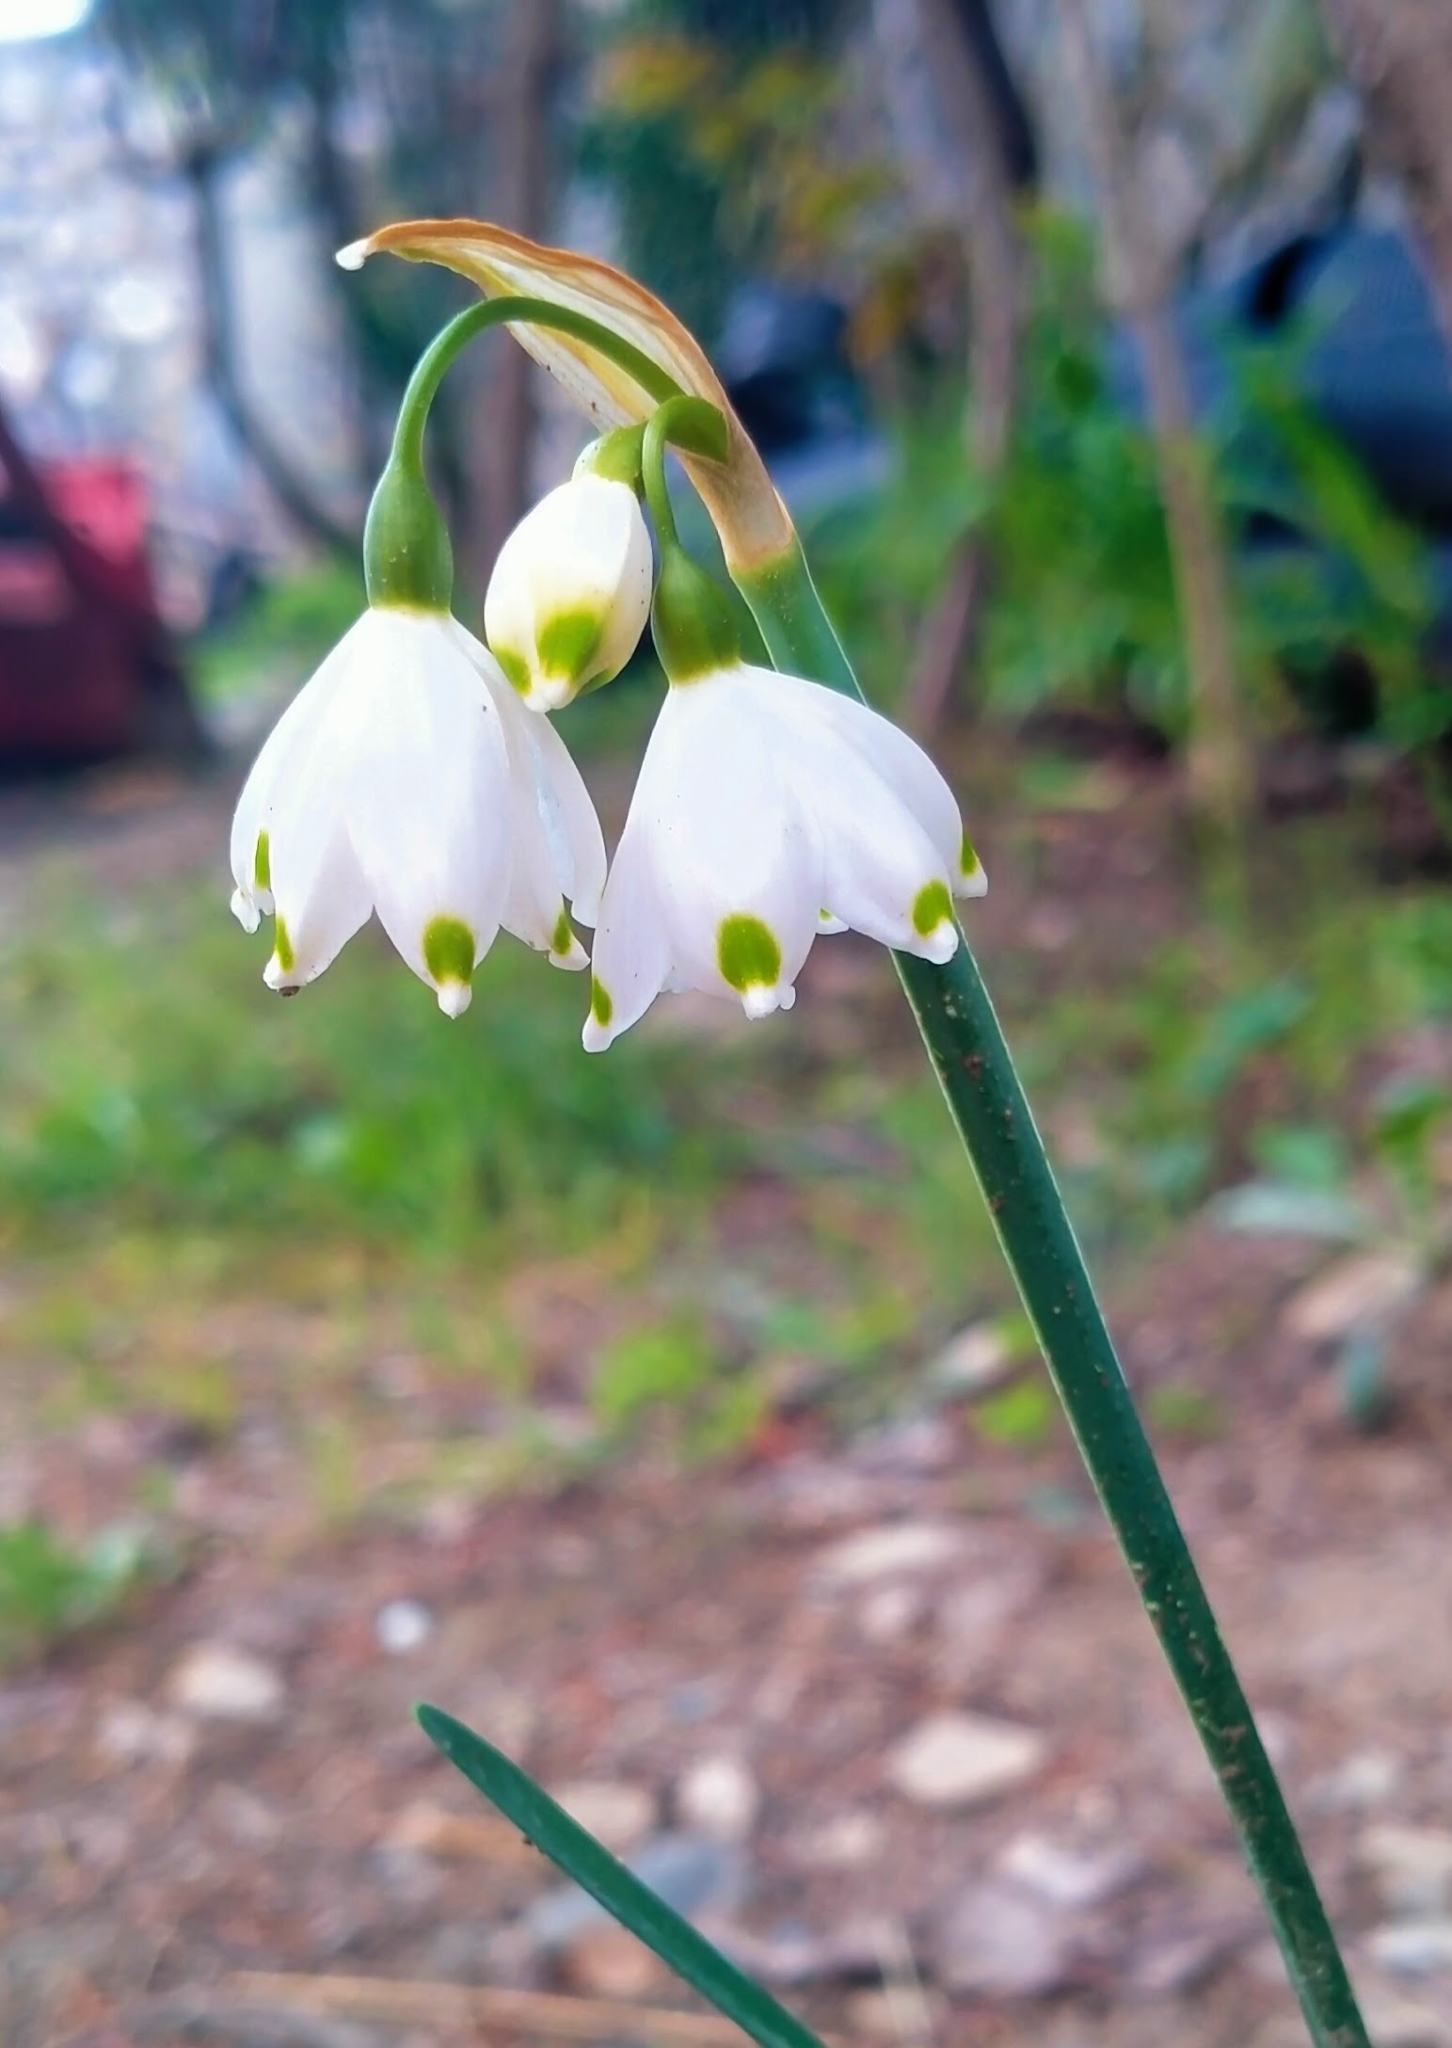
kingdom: Plantae
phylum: Tracheophyta
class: Liliopsida
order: Asparagales
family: Amaryllidaceae
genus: Leucojum
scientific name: Leucojum aestivum
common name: Summer snowflake
